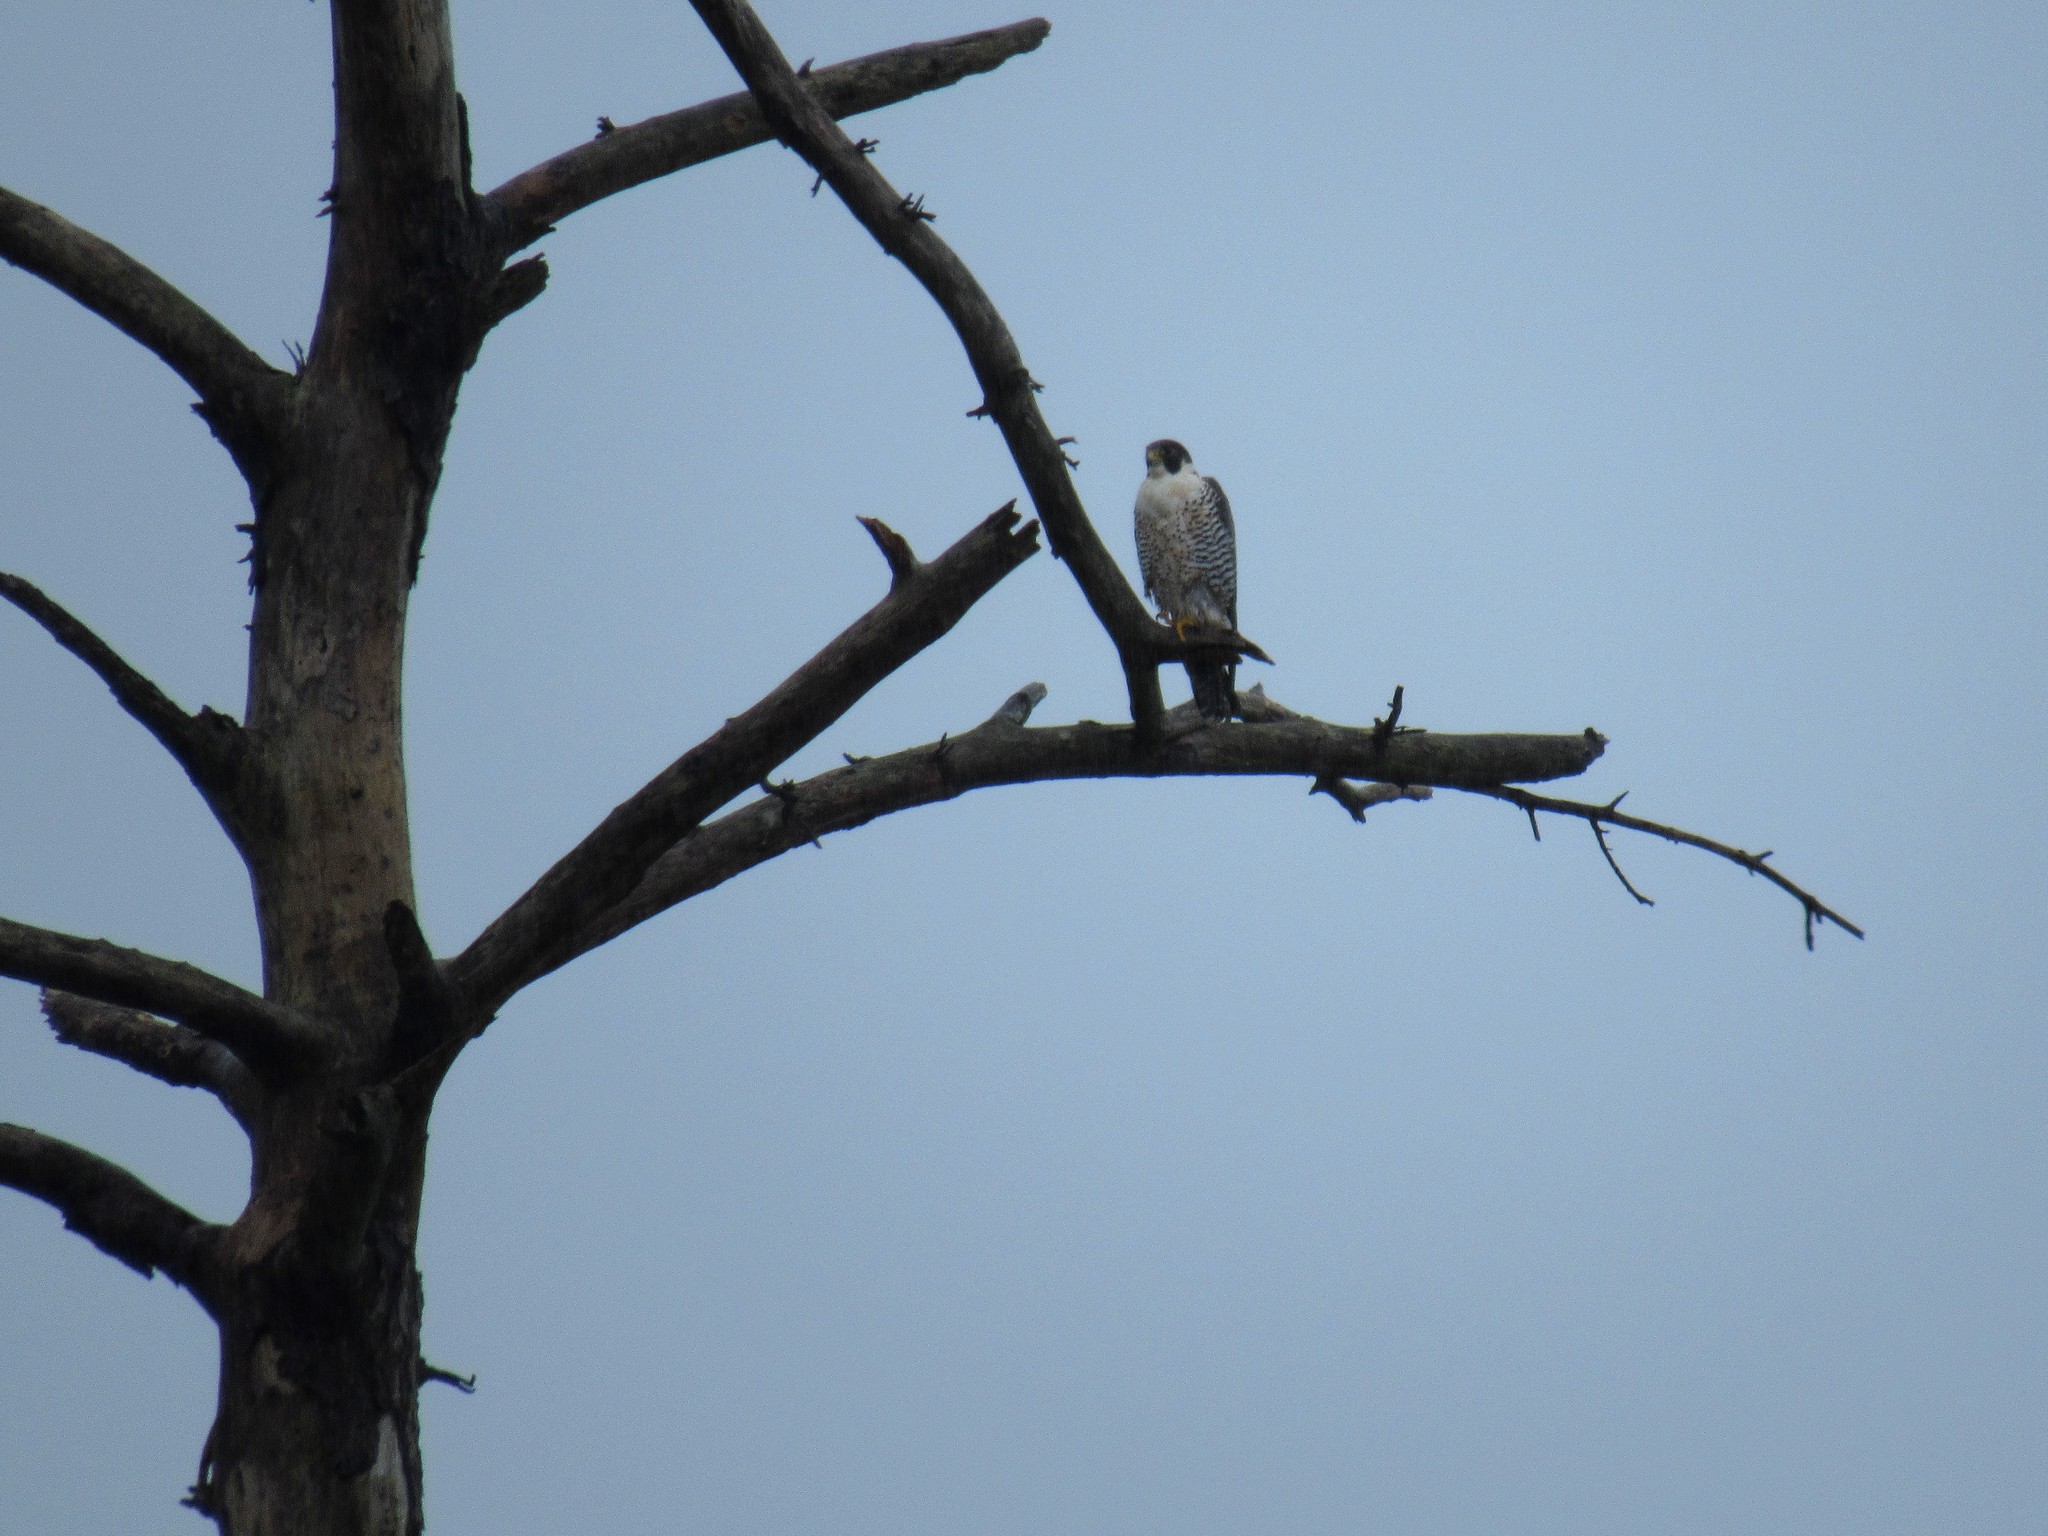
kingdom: Animalia
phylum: Chordata
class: Aves
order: Falconiformes
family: Falconidae
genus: Falco
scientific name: Falco peregrinus
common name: Peregrine falcon
